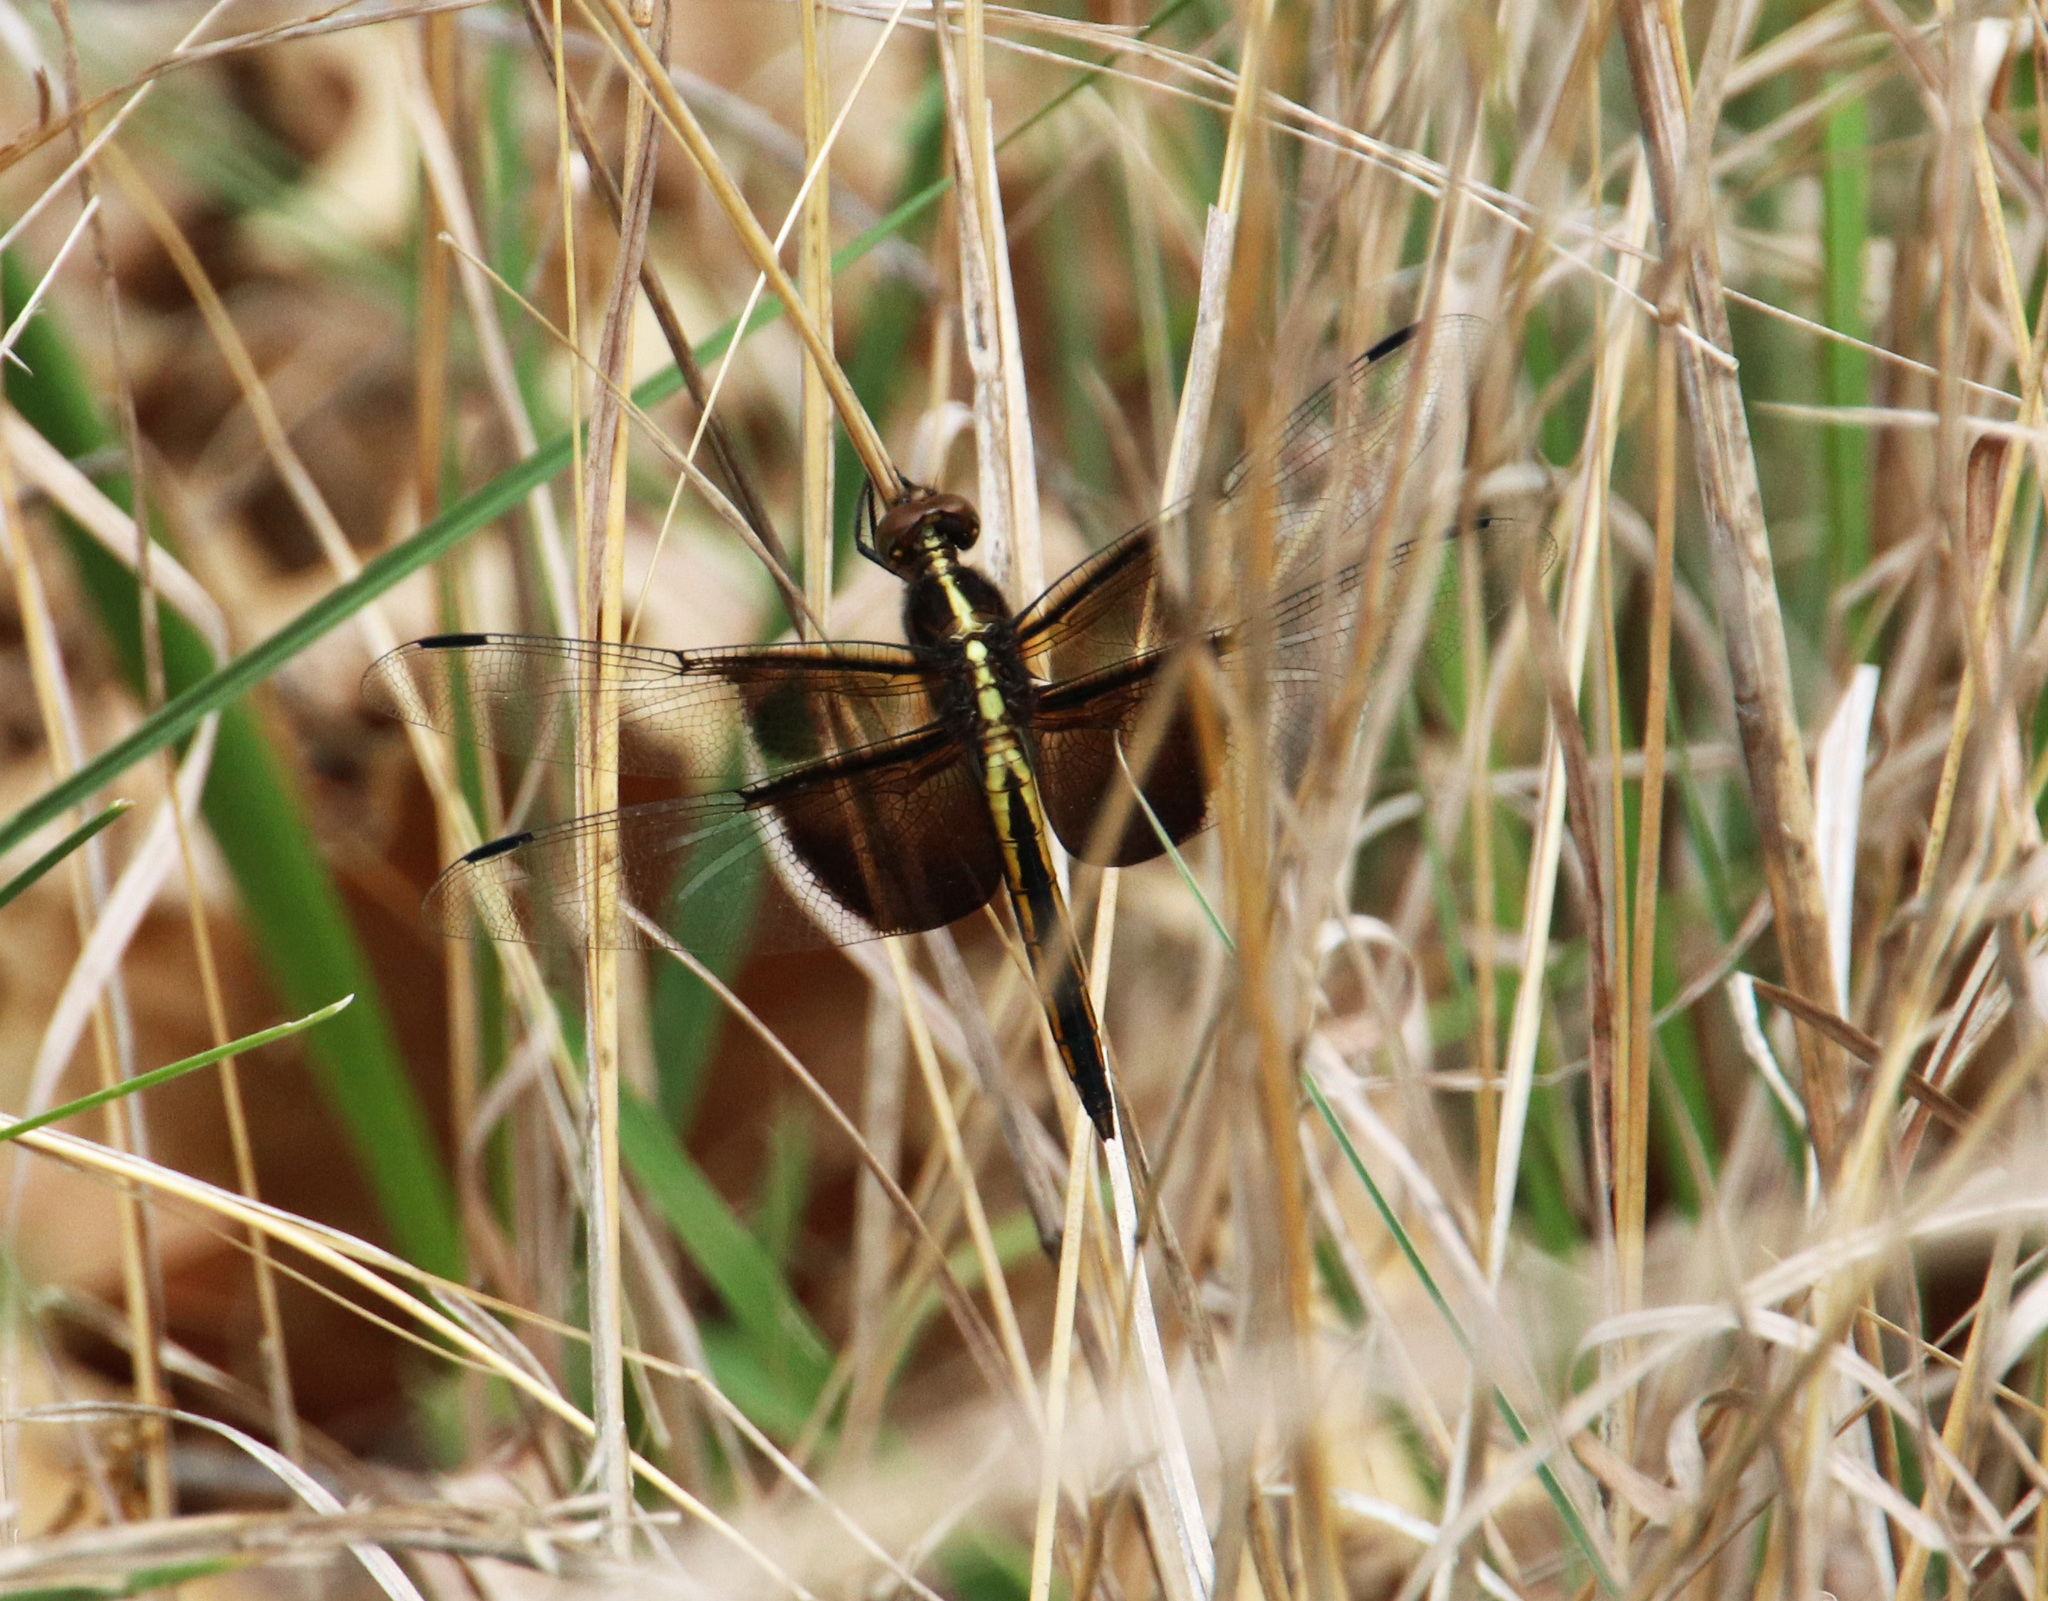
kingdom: Animalia
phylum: Arthropoda
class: Insecta
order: Odonata
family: Libellulidae
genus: Libellula
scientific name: Libellula luctuosa
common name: Widow skimmer
